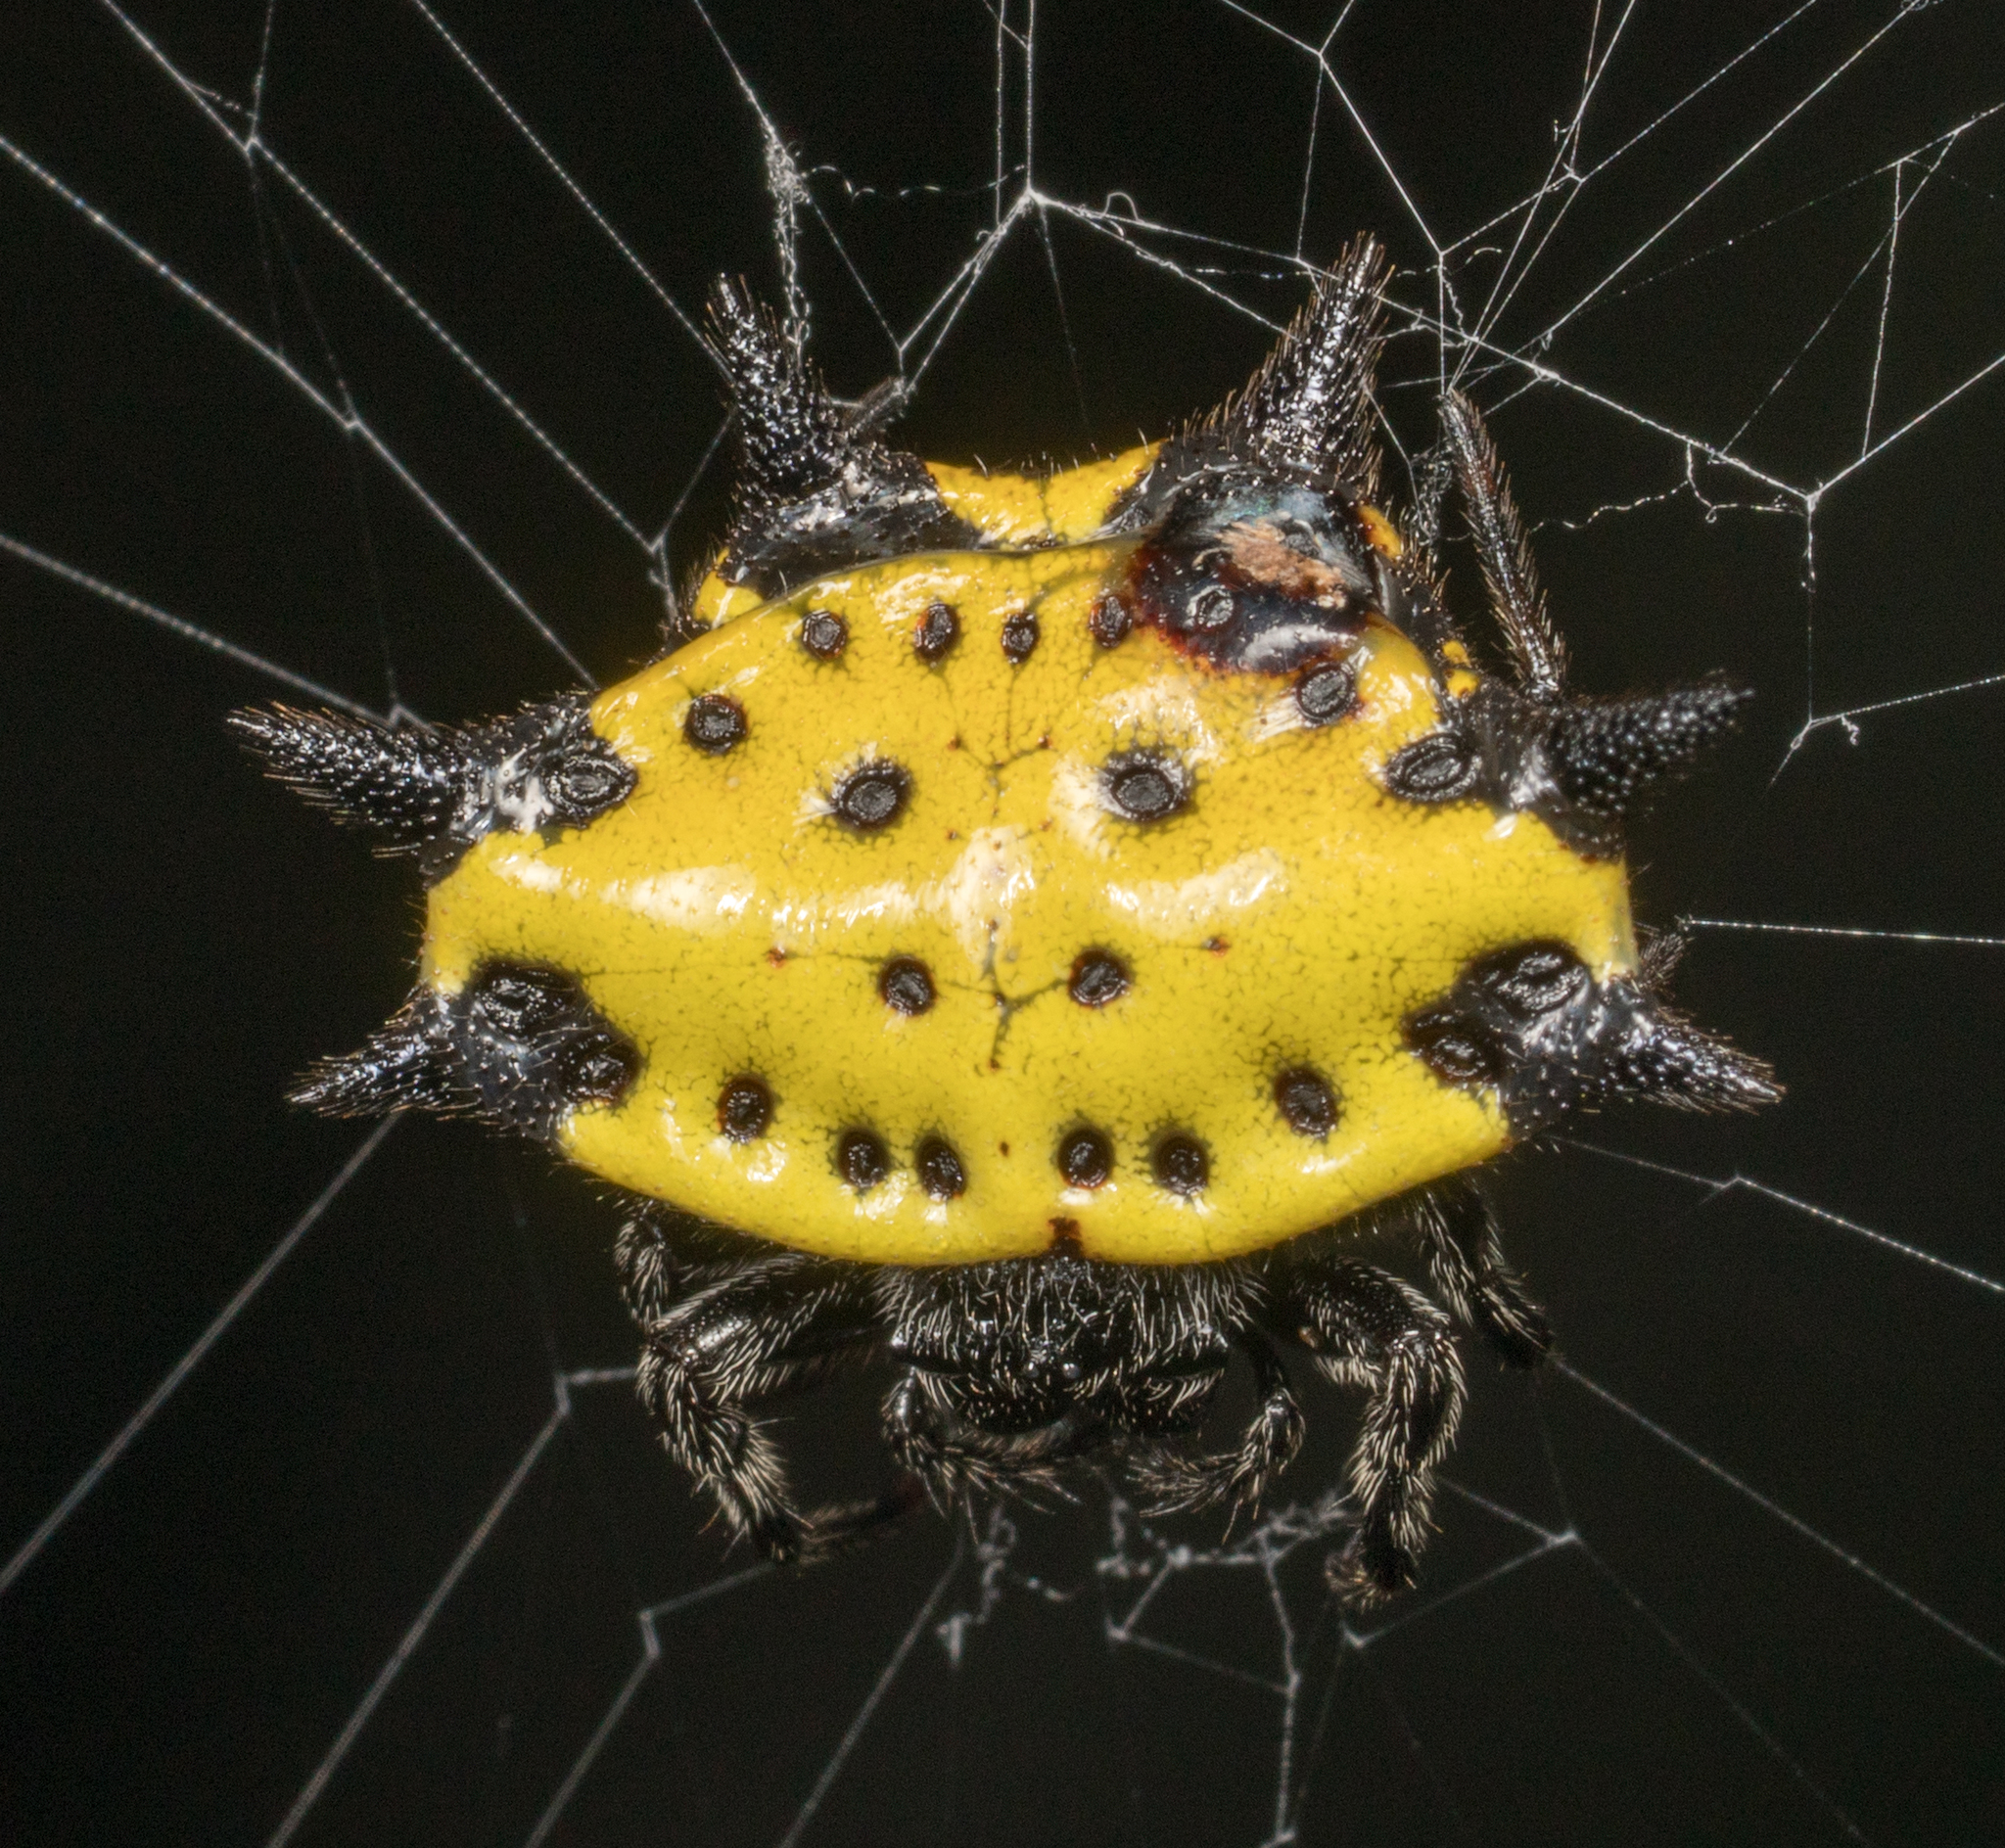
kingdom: Animalia
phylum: Arthropoda
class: Arachnida
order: Araneae
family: Araneidae
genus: Gasteracantha
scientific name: Gasteracantha cancriformis
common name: Orb weavers
